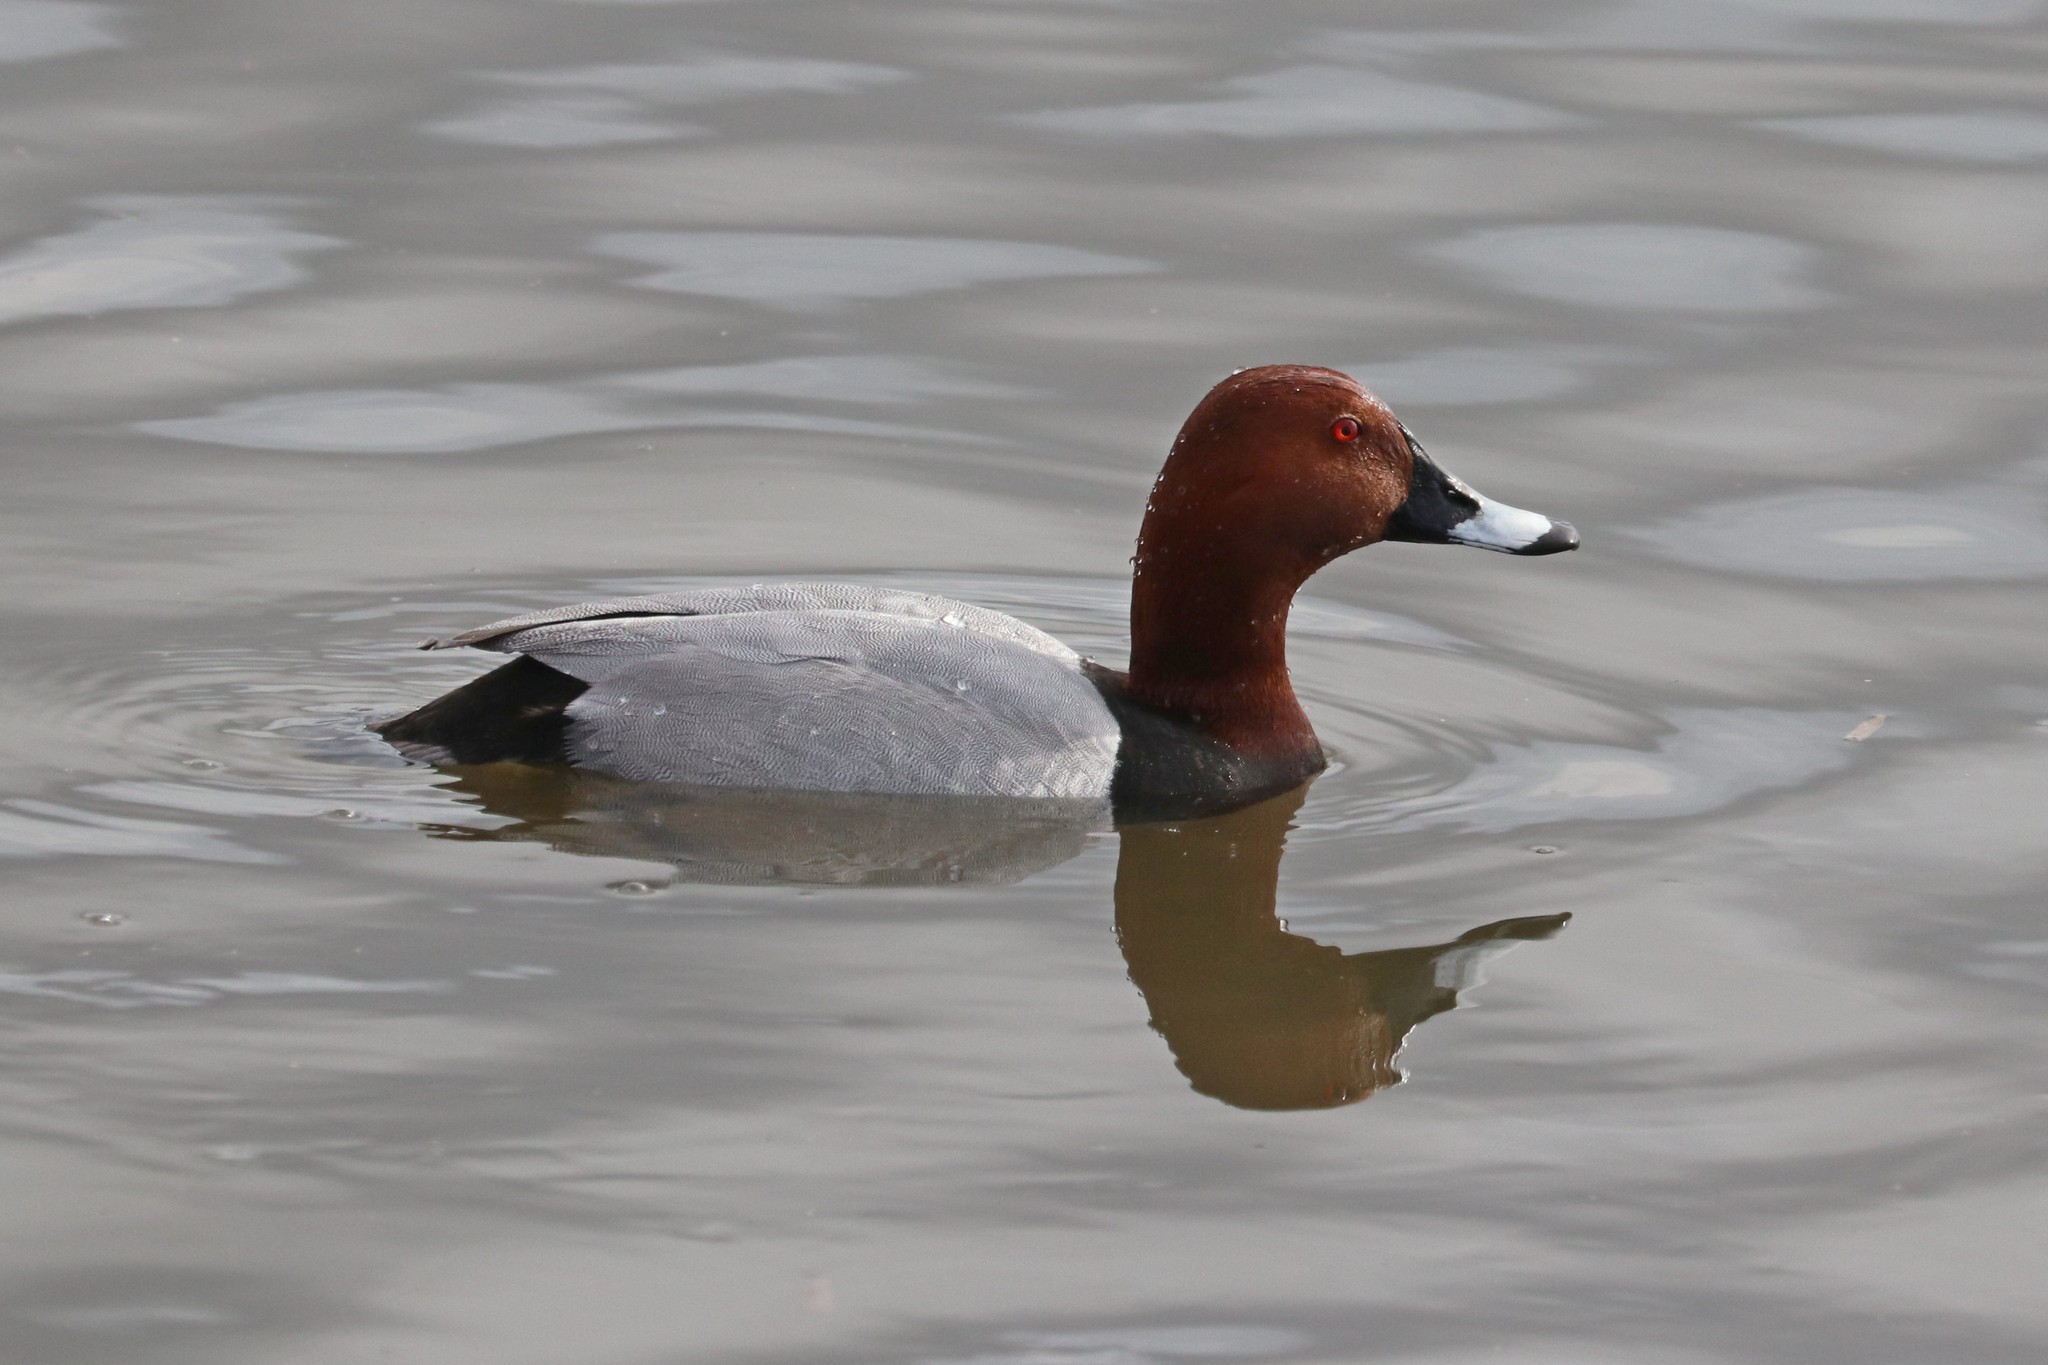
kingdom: Animalia
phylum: Chordata
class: Aves
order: Anseriformes
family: Anatidae
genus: Aythya
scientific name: Aythya ferina
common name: Common pochard
